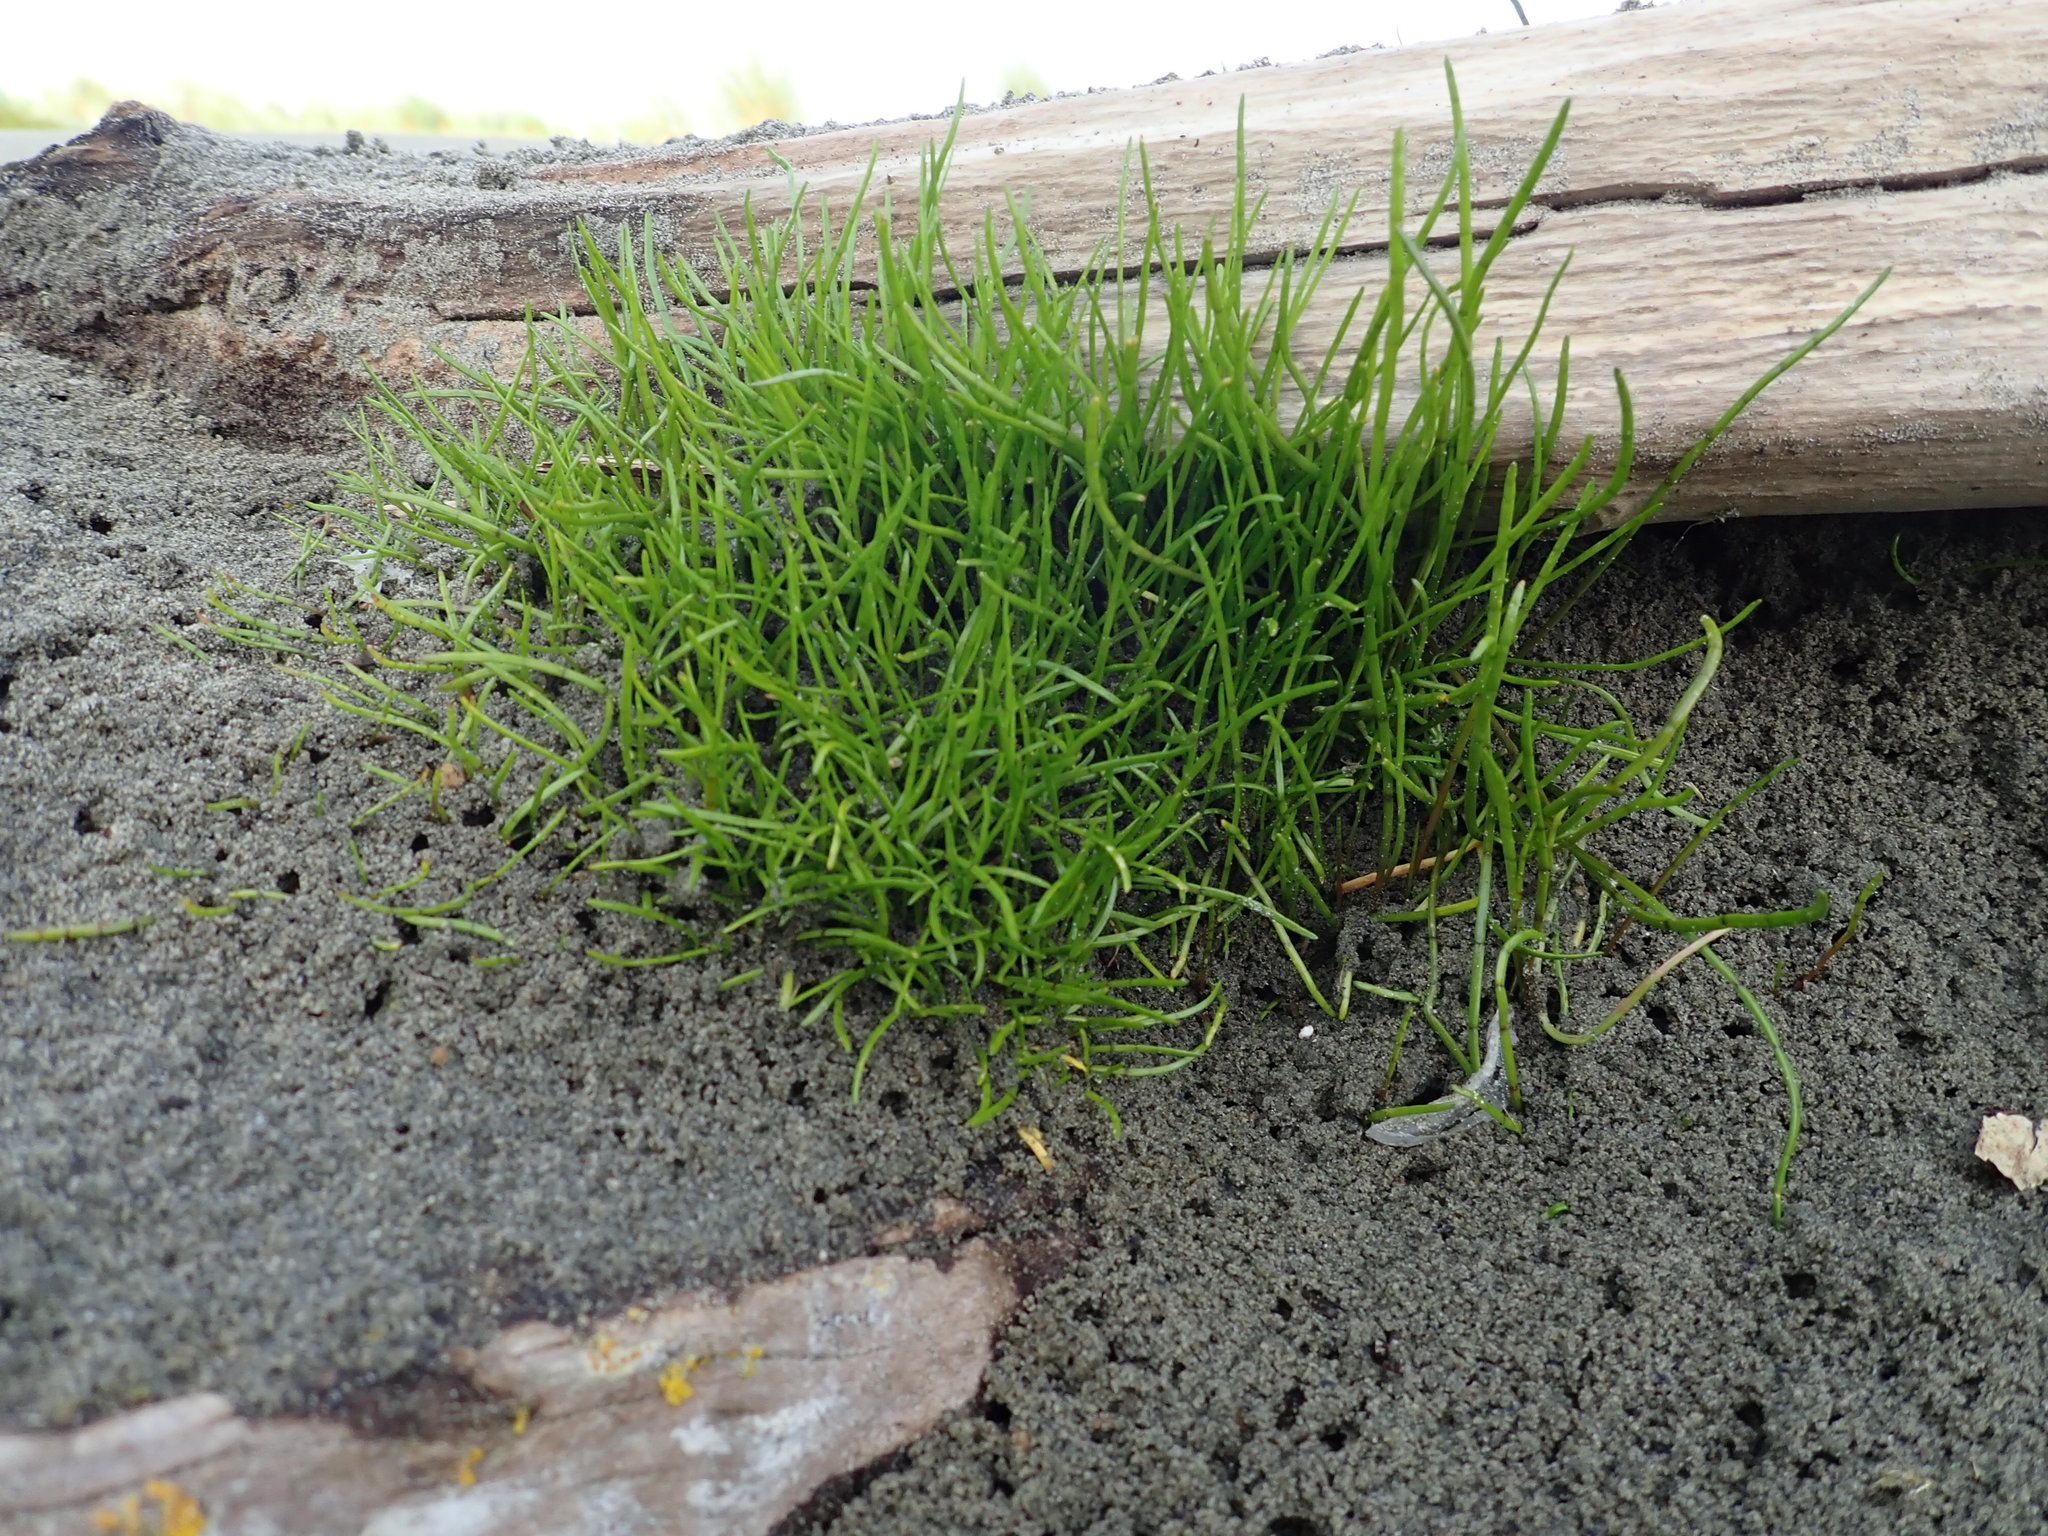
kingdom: Plantae
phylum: Tracheophyta
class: Magnoliopsida
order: Apiales
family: Apiaceae
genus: Lilaeopsis
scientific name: Lilaeopsis novae-zelandiae
